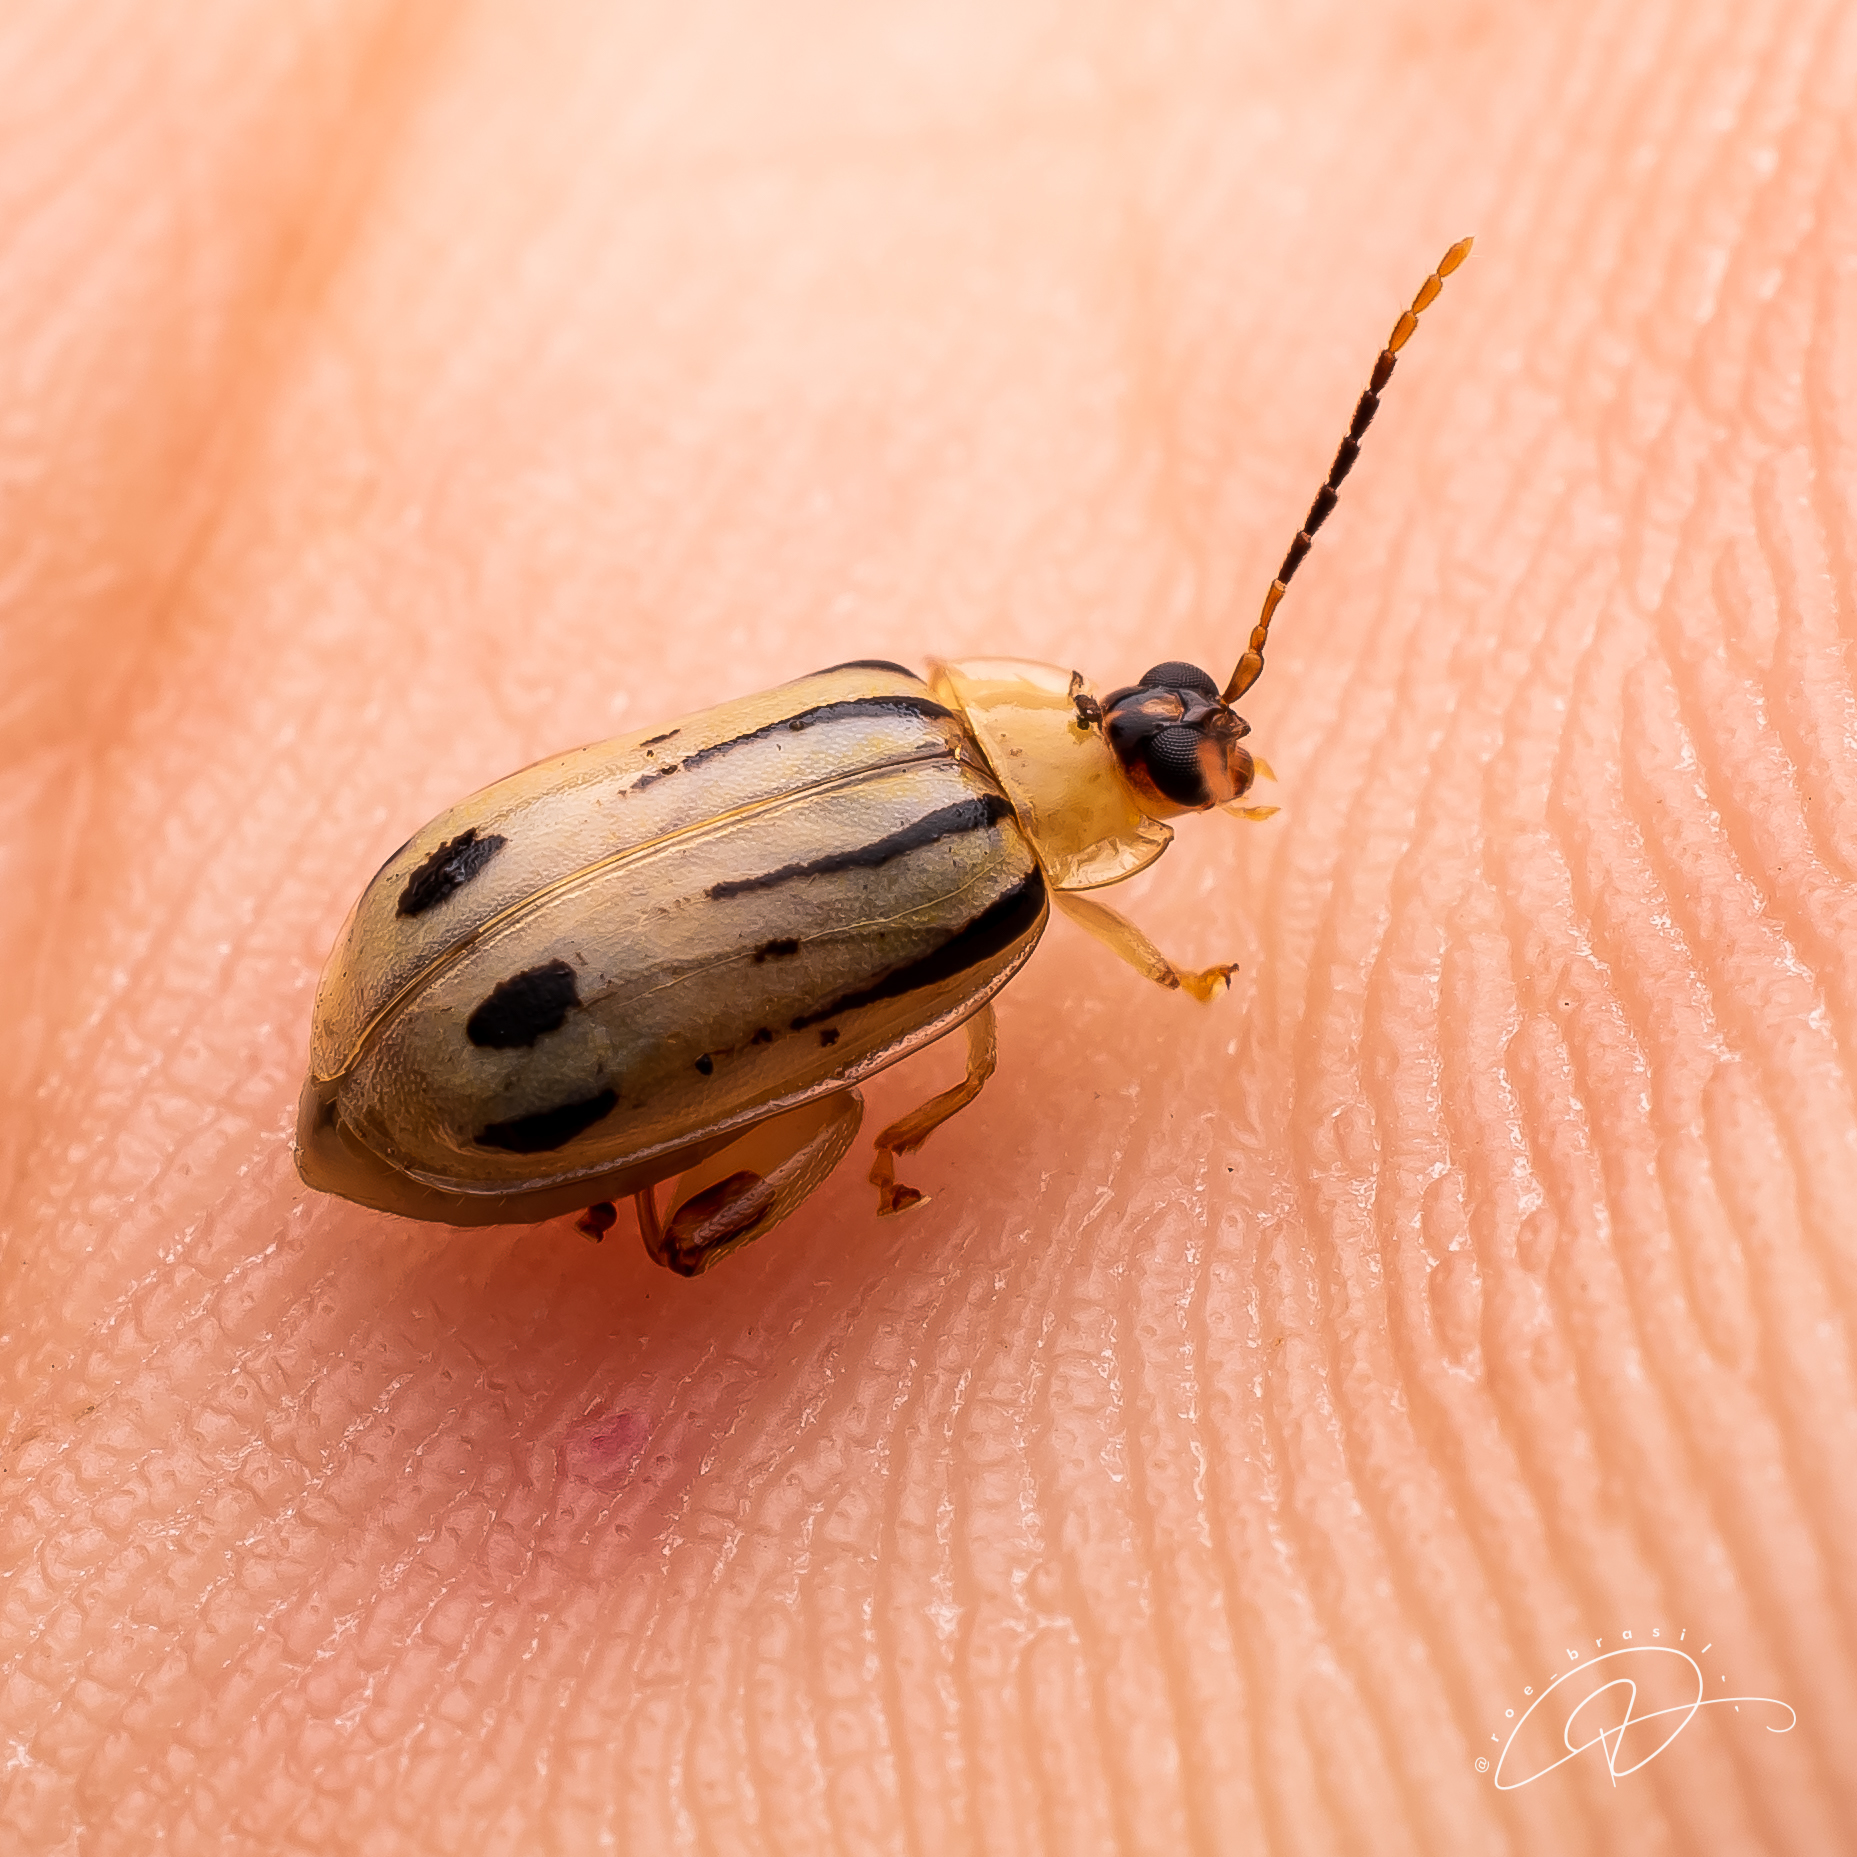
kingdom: Animalia
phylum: Arthropoda
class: Insecta
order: Coleoptera
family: Chrysomelidae
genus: Walterianella
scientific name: Walterianella interruptovittatus
